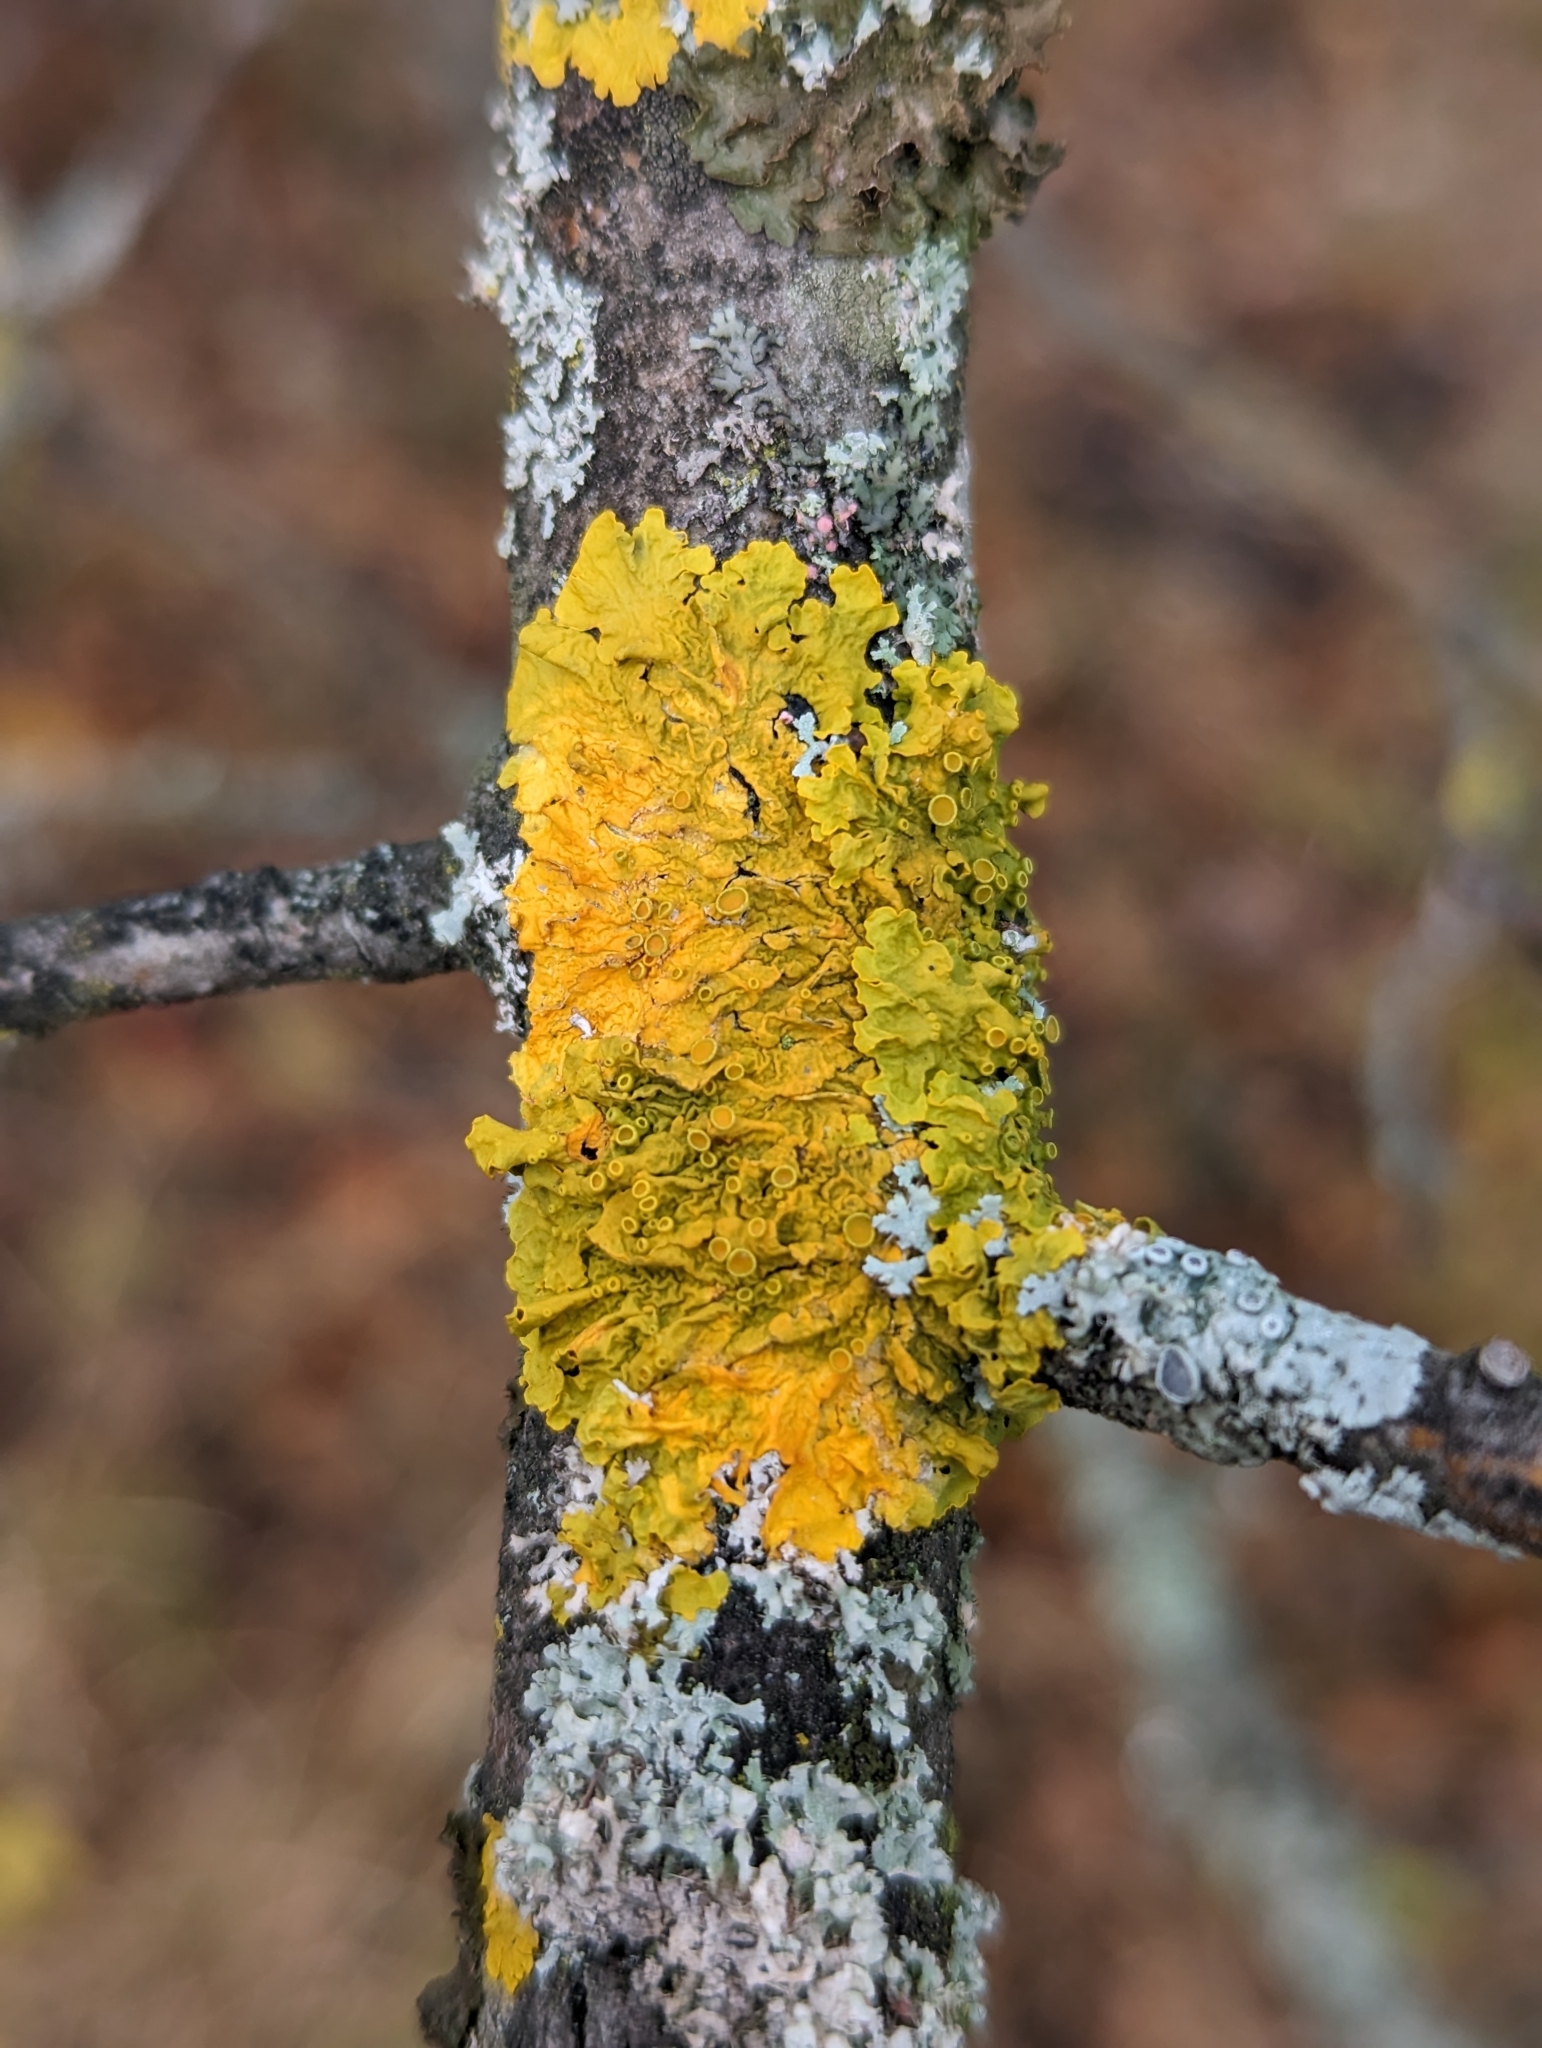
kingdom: Fungi
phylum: Ascomycota
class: Lecanoromycetes
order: Teloschistales
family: Teloschistaceae
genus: Xanthoria
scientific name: Xanthoria parietina
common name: Common orange lichen
